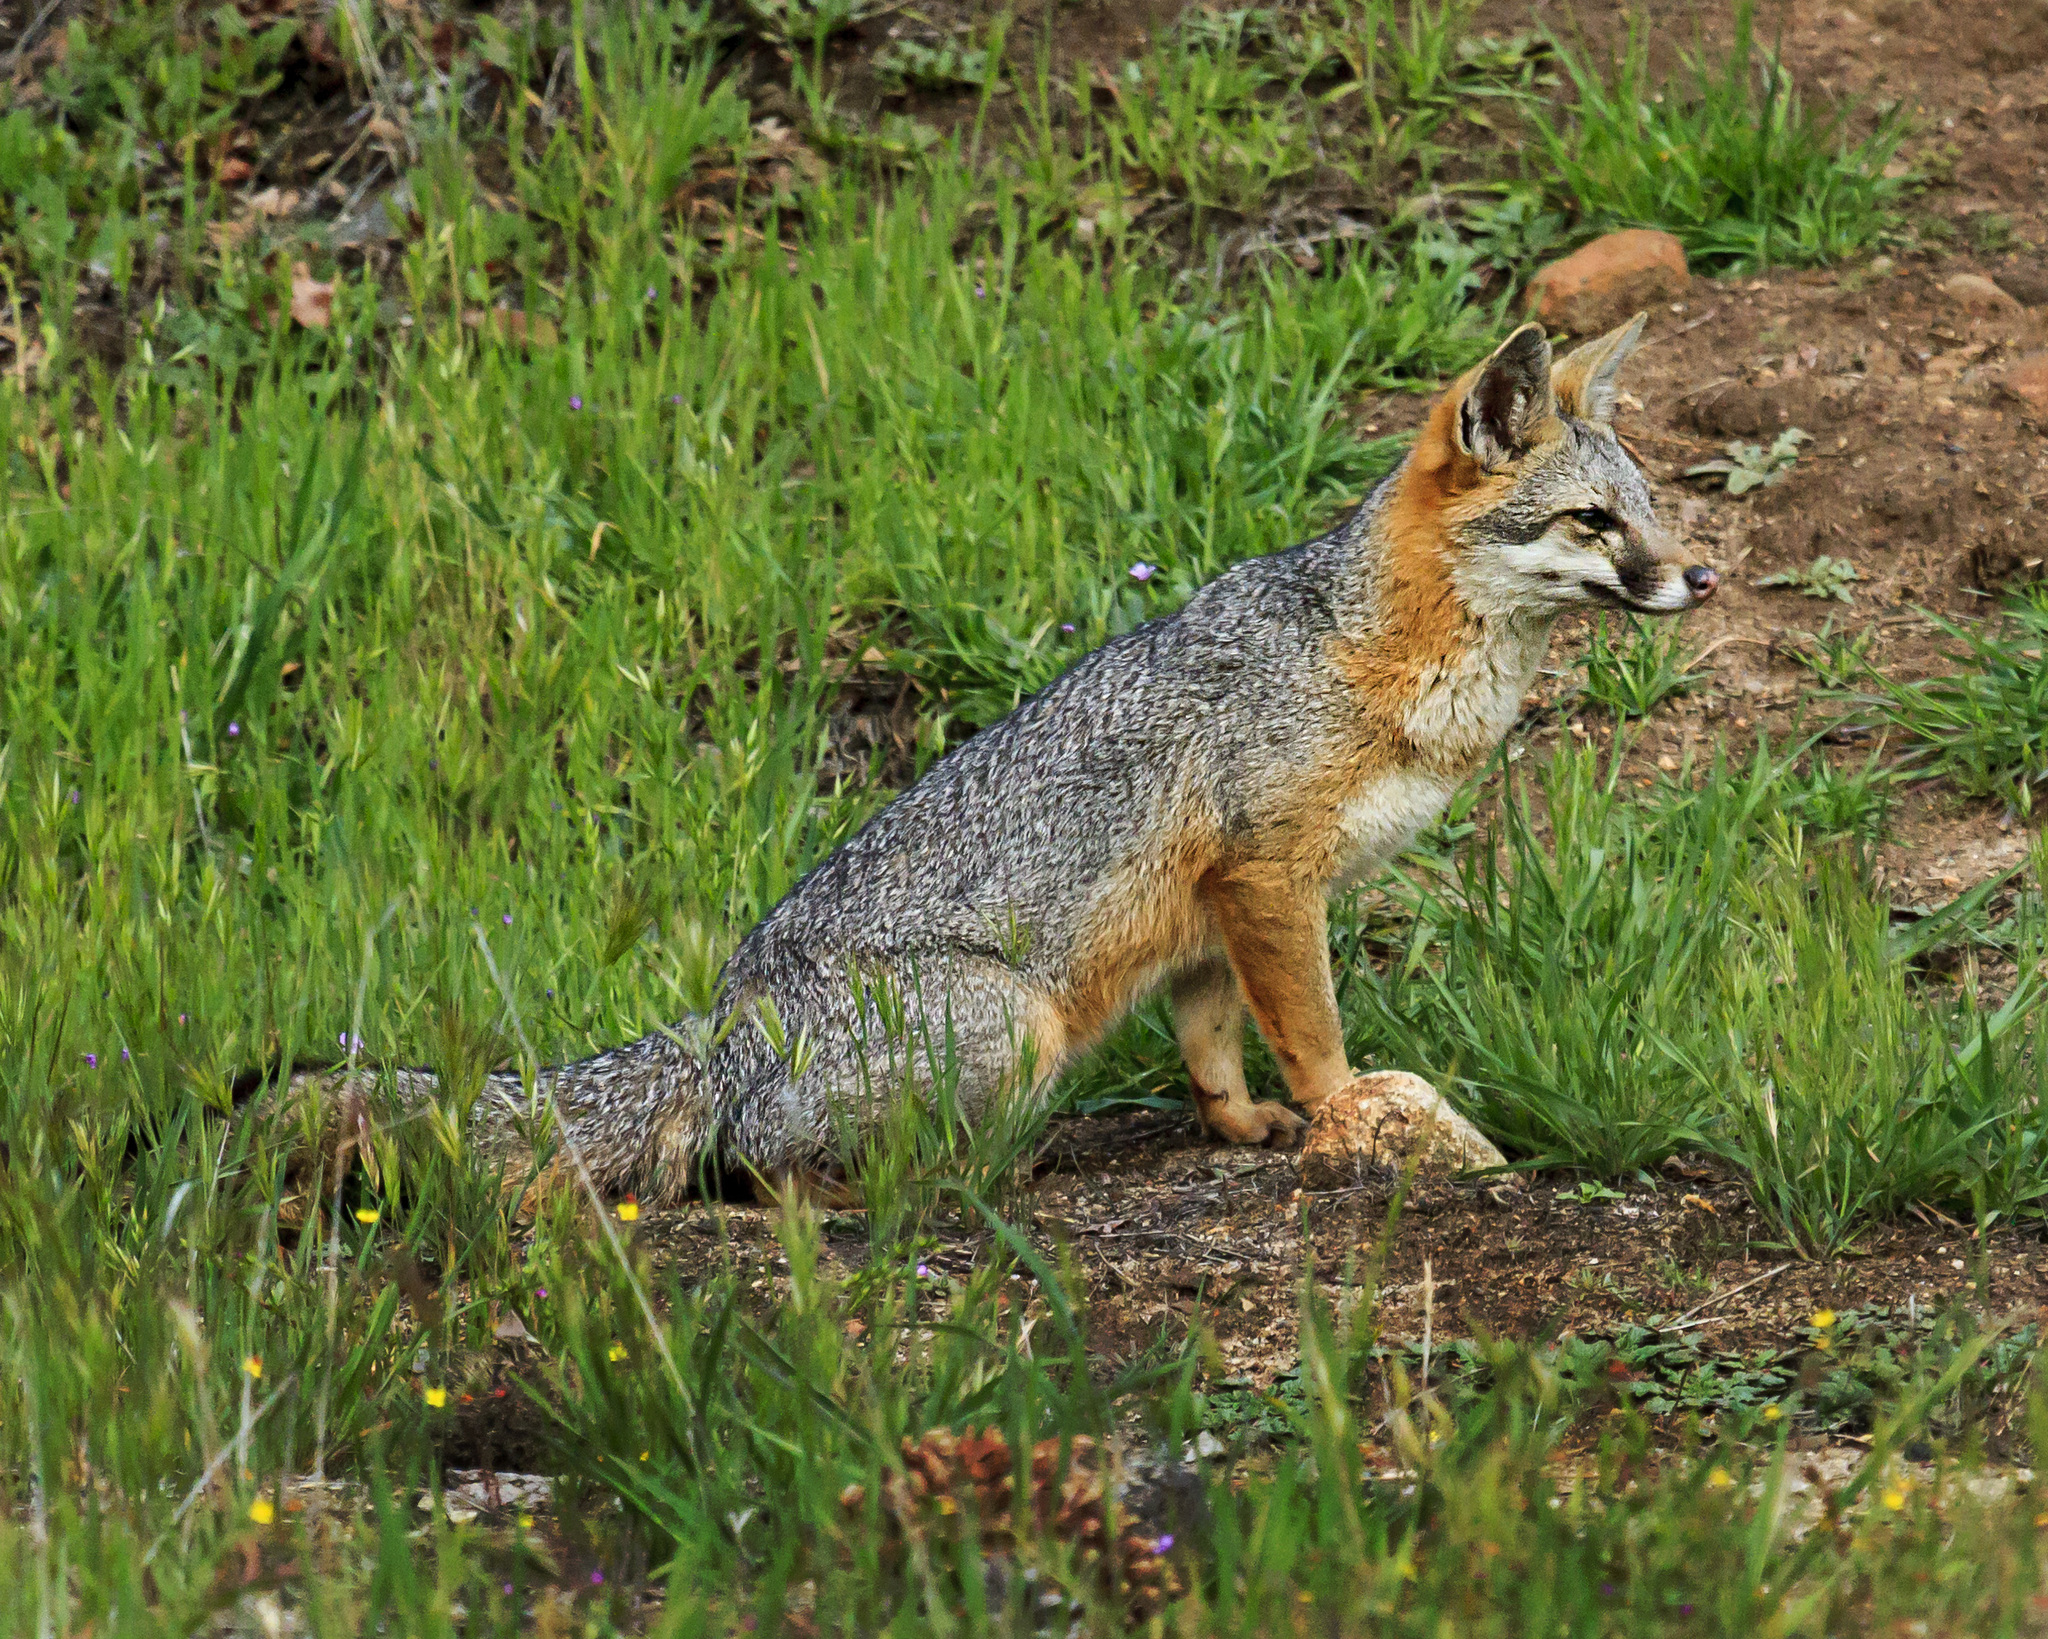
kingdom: Animalia
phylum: Chordata
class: Mammalia
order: Carnivora
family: Canidae
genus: Urocyon
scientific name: Urocyon cinereoargenteus
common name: Gray fox
